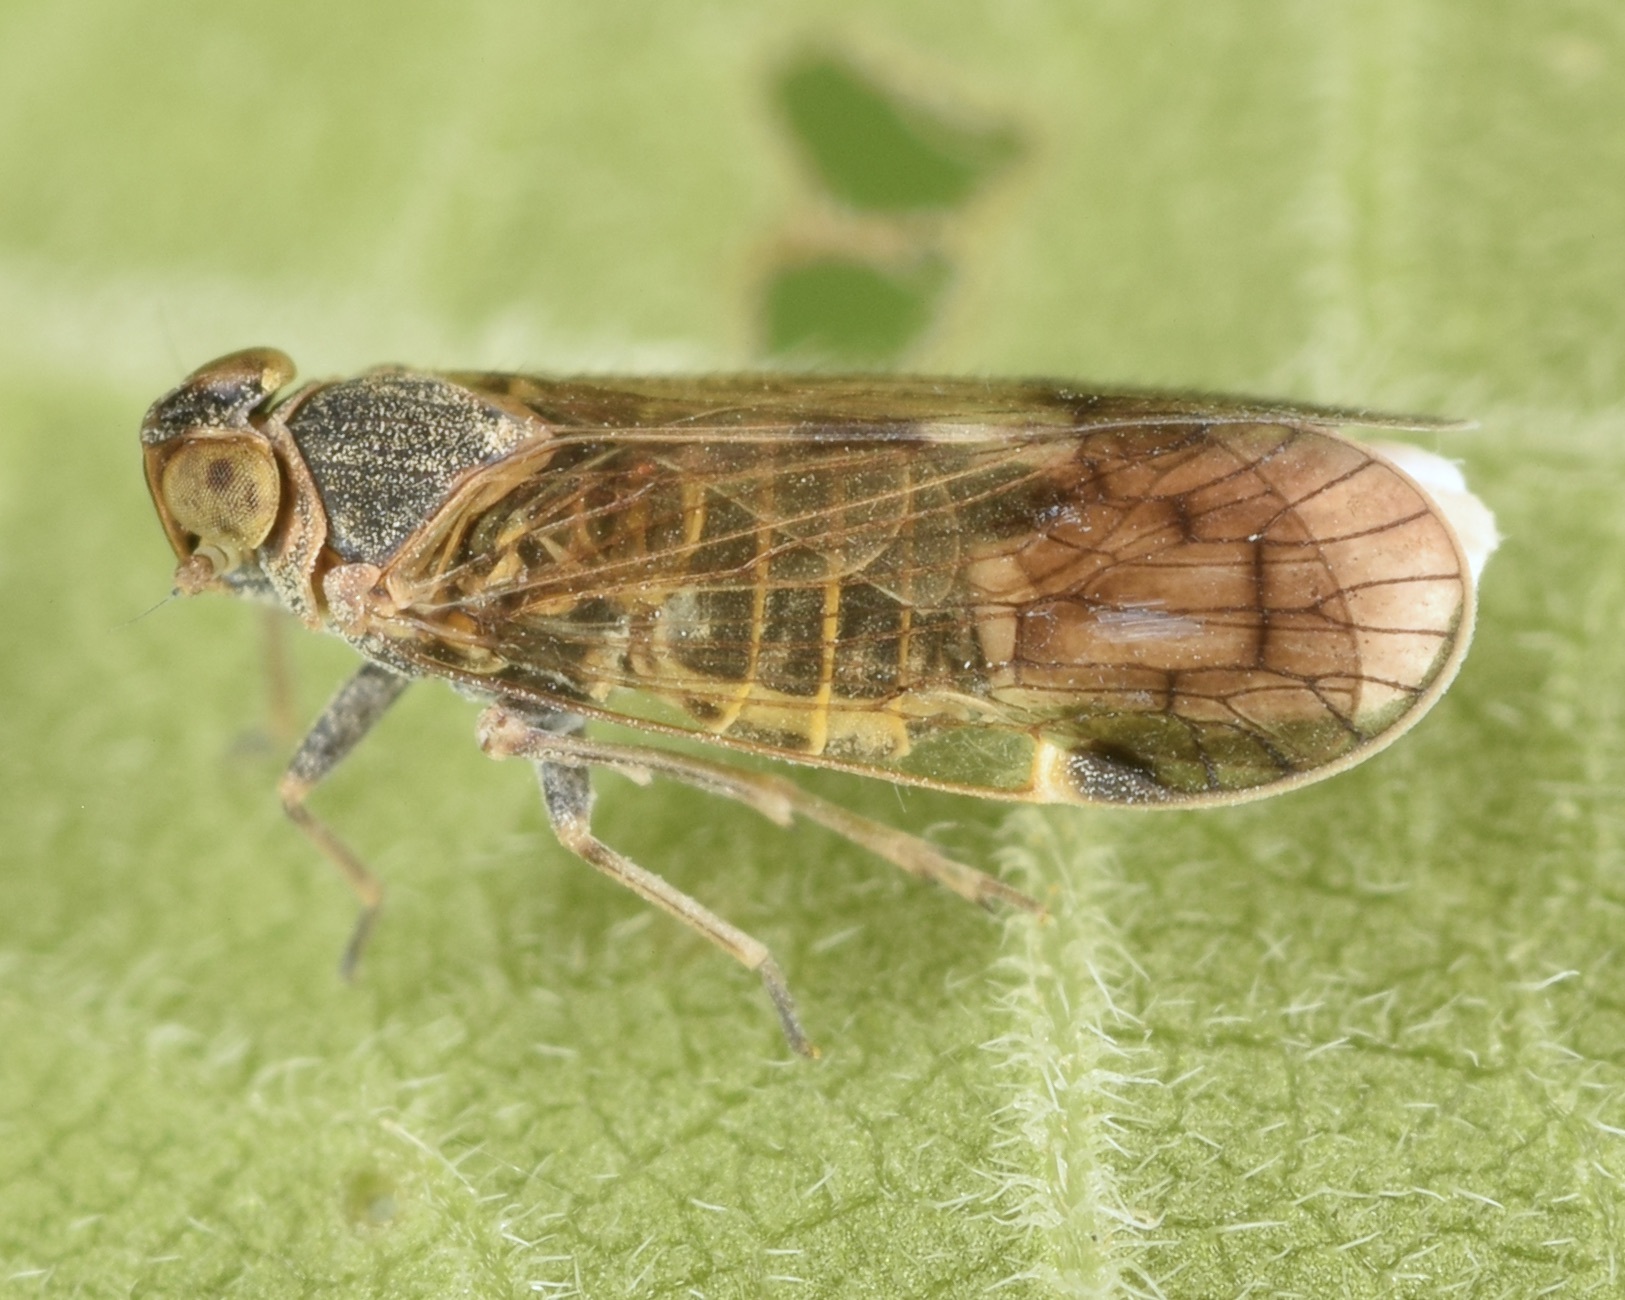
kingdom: Animalia
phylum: Arthropoda
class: Insecta
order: Hemiptera
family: Cixiidae
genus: Melanoliarus
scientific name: Melanoliarus humilis
